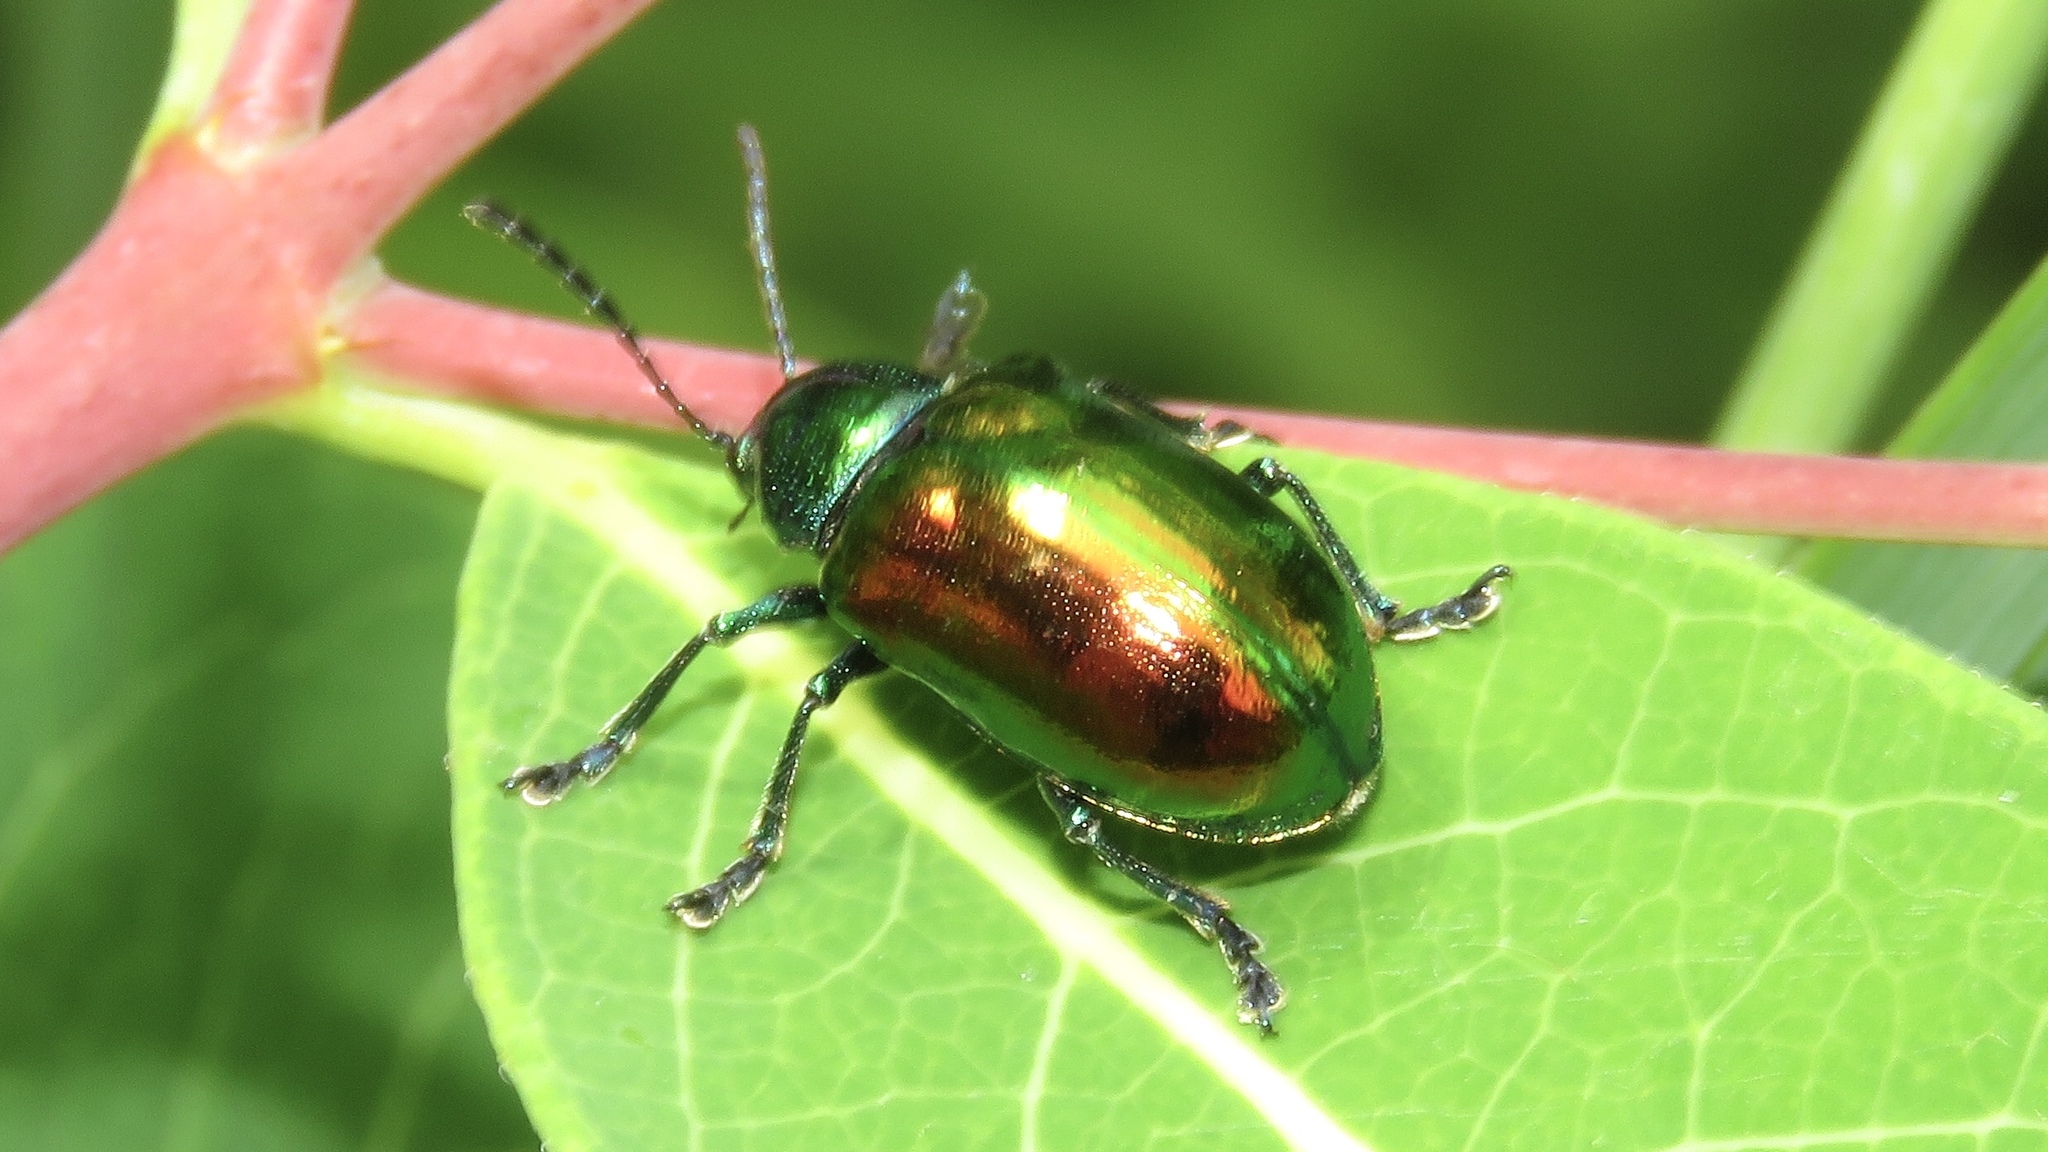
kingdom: Animalia
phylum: Arthropoda
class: Insecta
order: Coleoptera
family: Chrysomelidae
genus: Chrysochus
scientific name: Chrysochus auratus
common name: Dogbane leaf beetle
